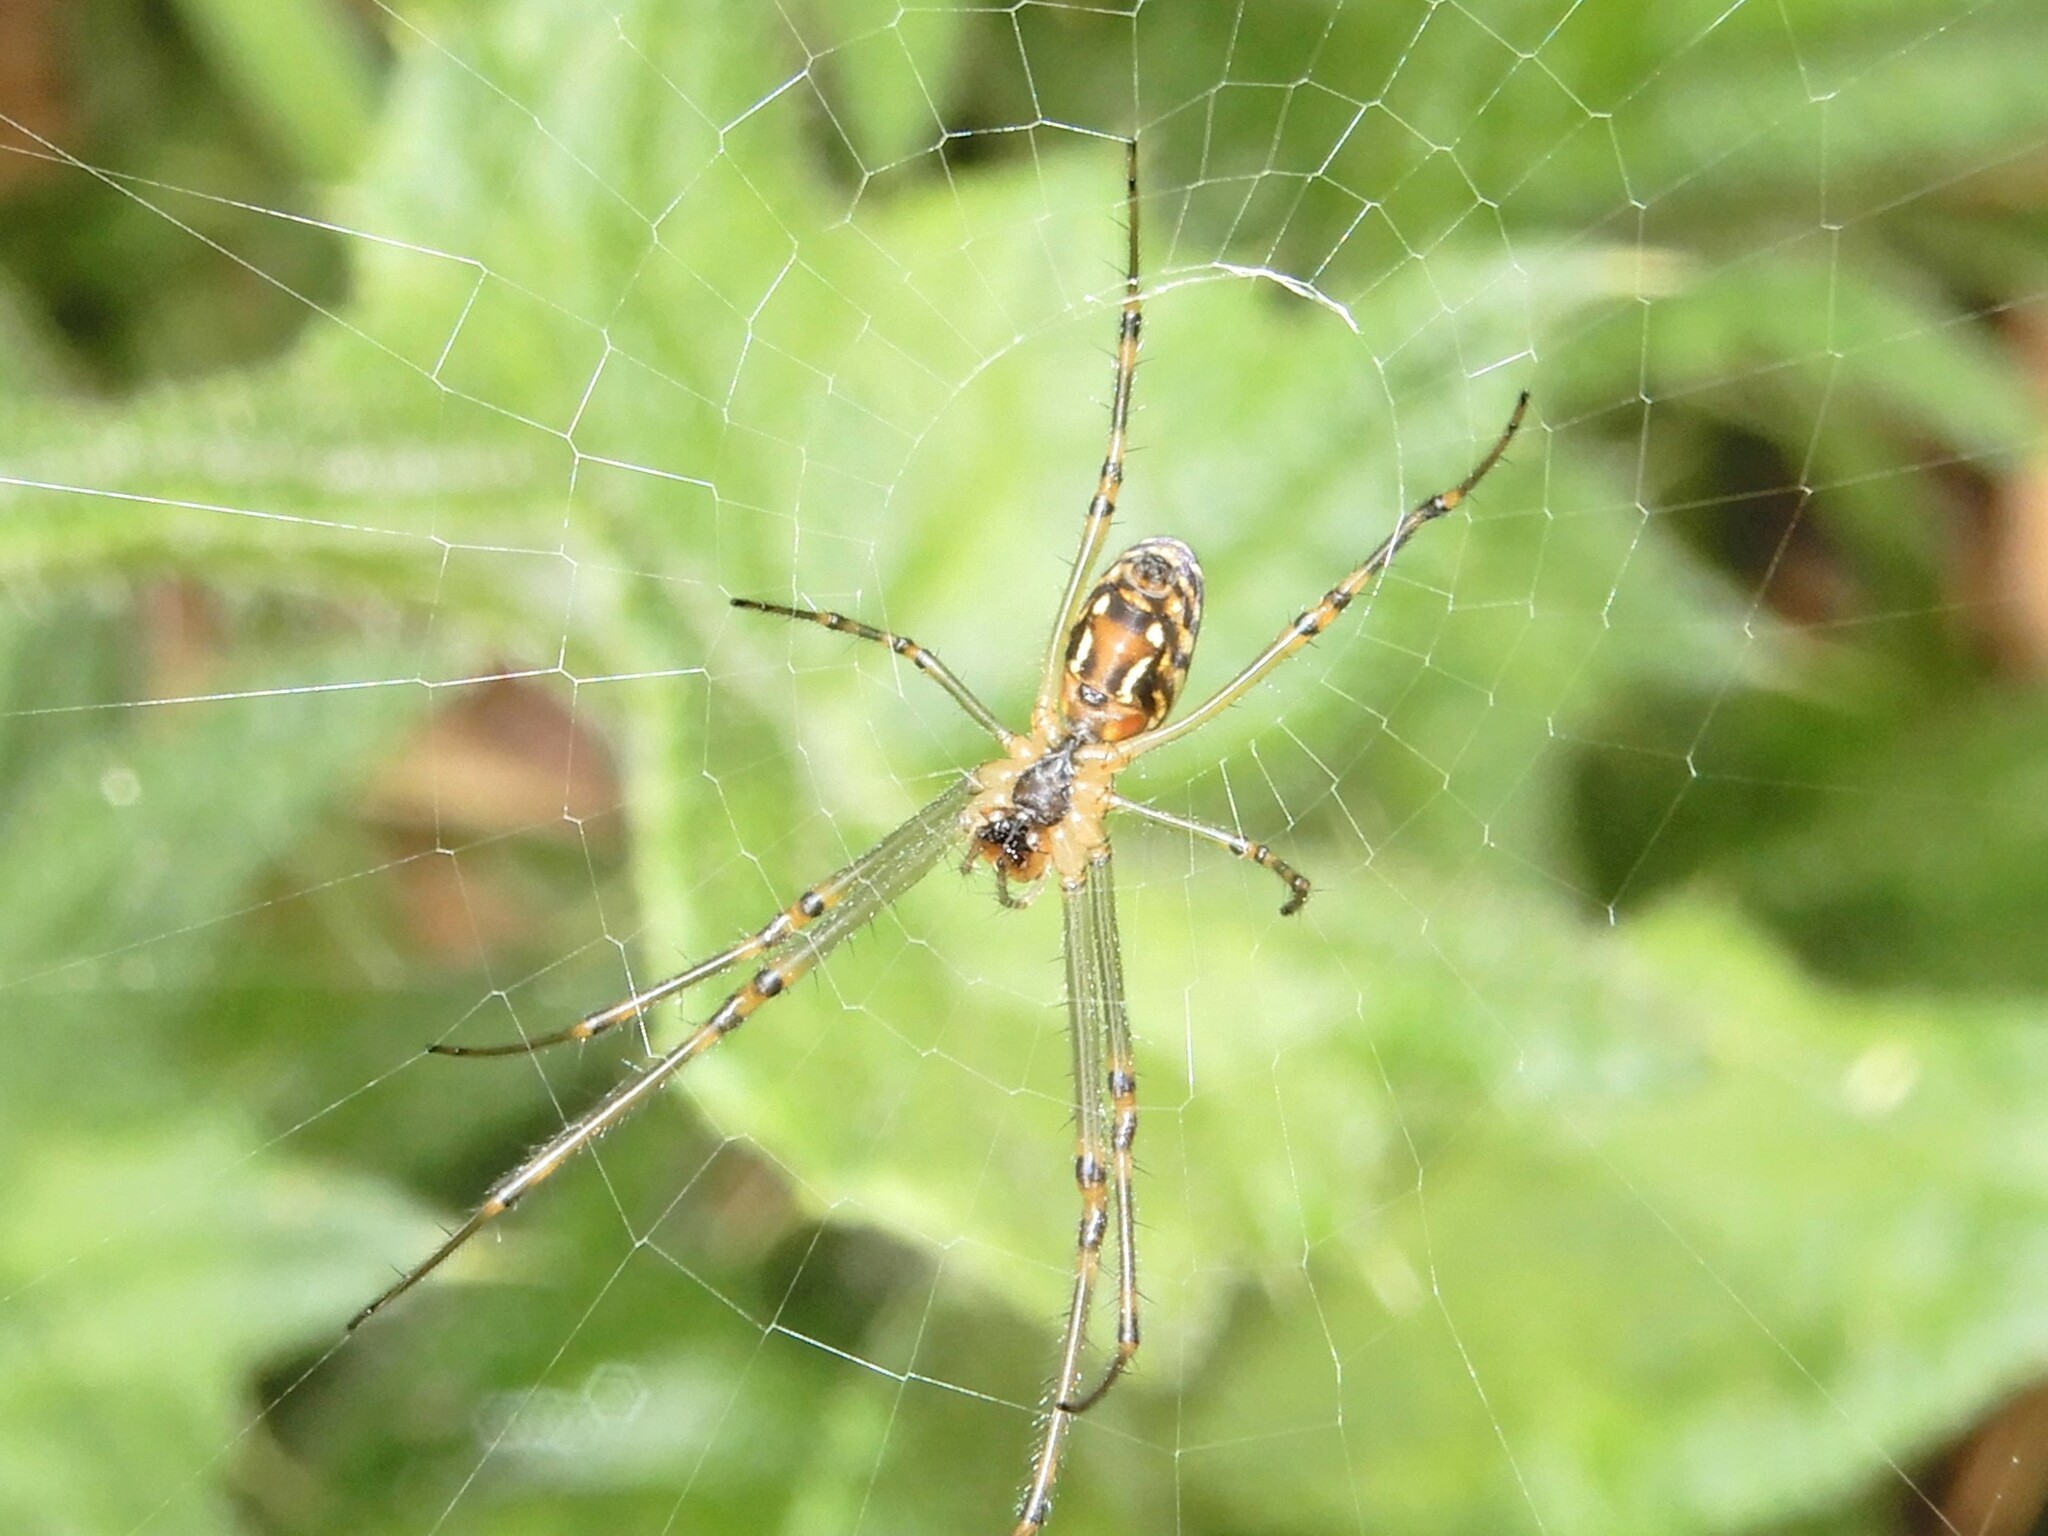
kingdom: Animalia
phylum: Arthropoda
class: Arachnida
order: Araneae
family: Tetragnathidae
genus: Leucauge
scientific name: Leucauge dromedaria
